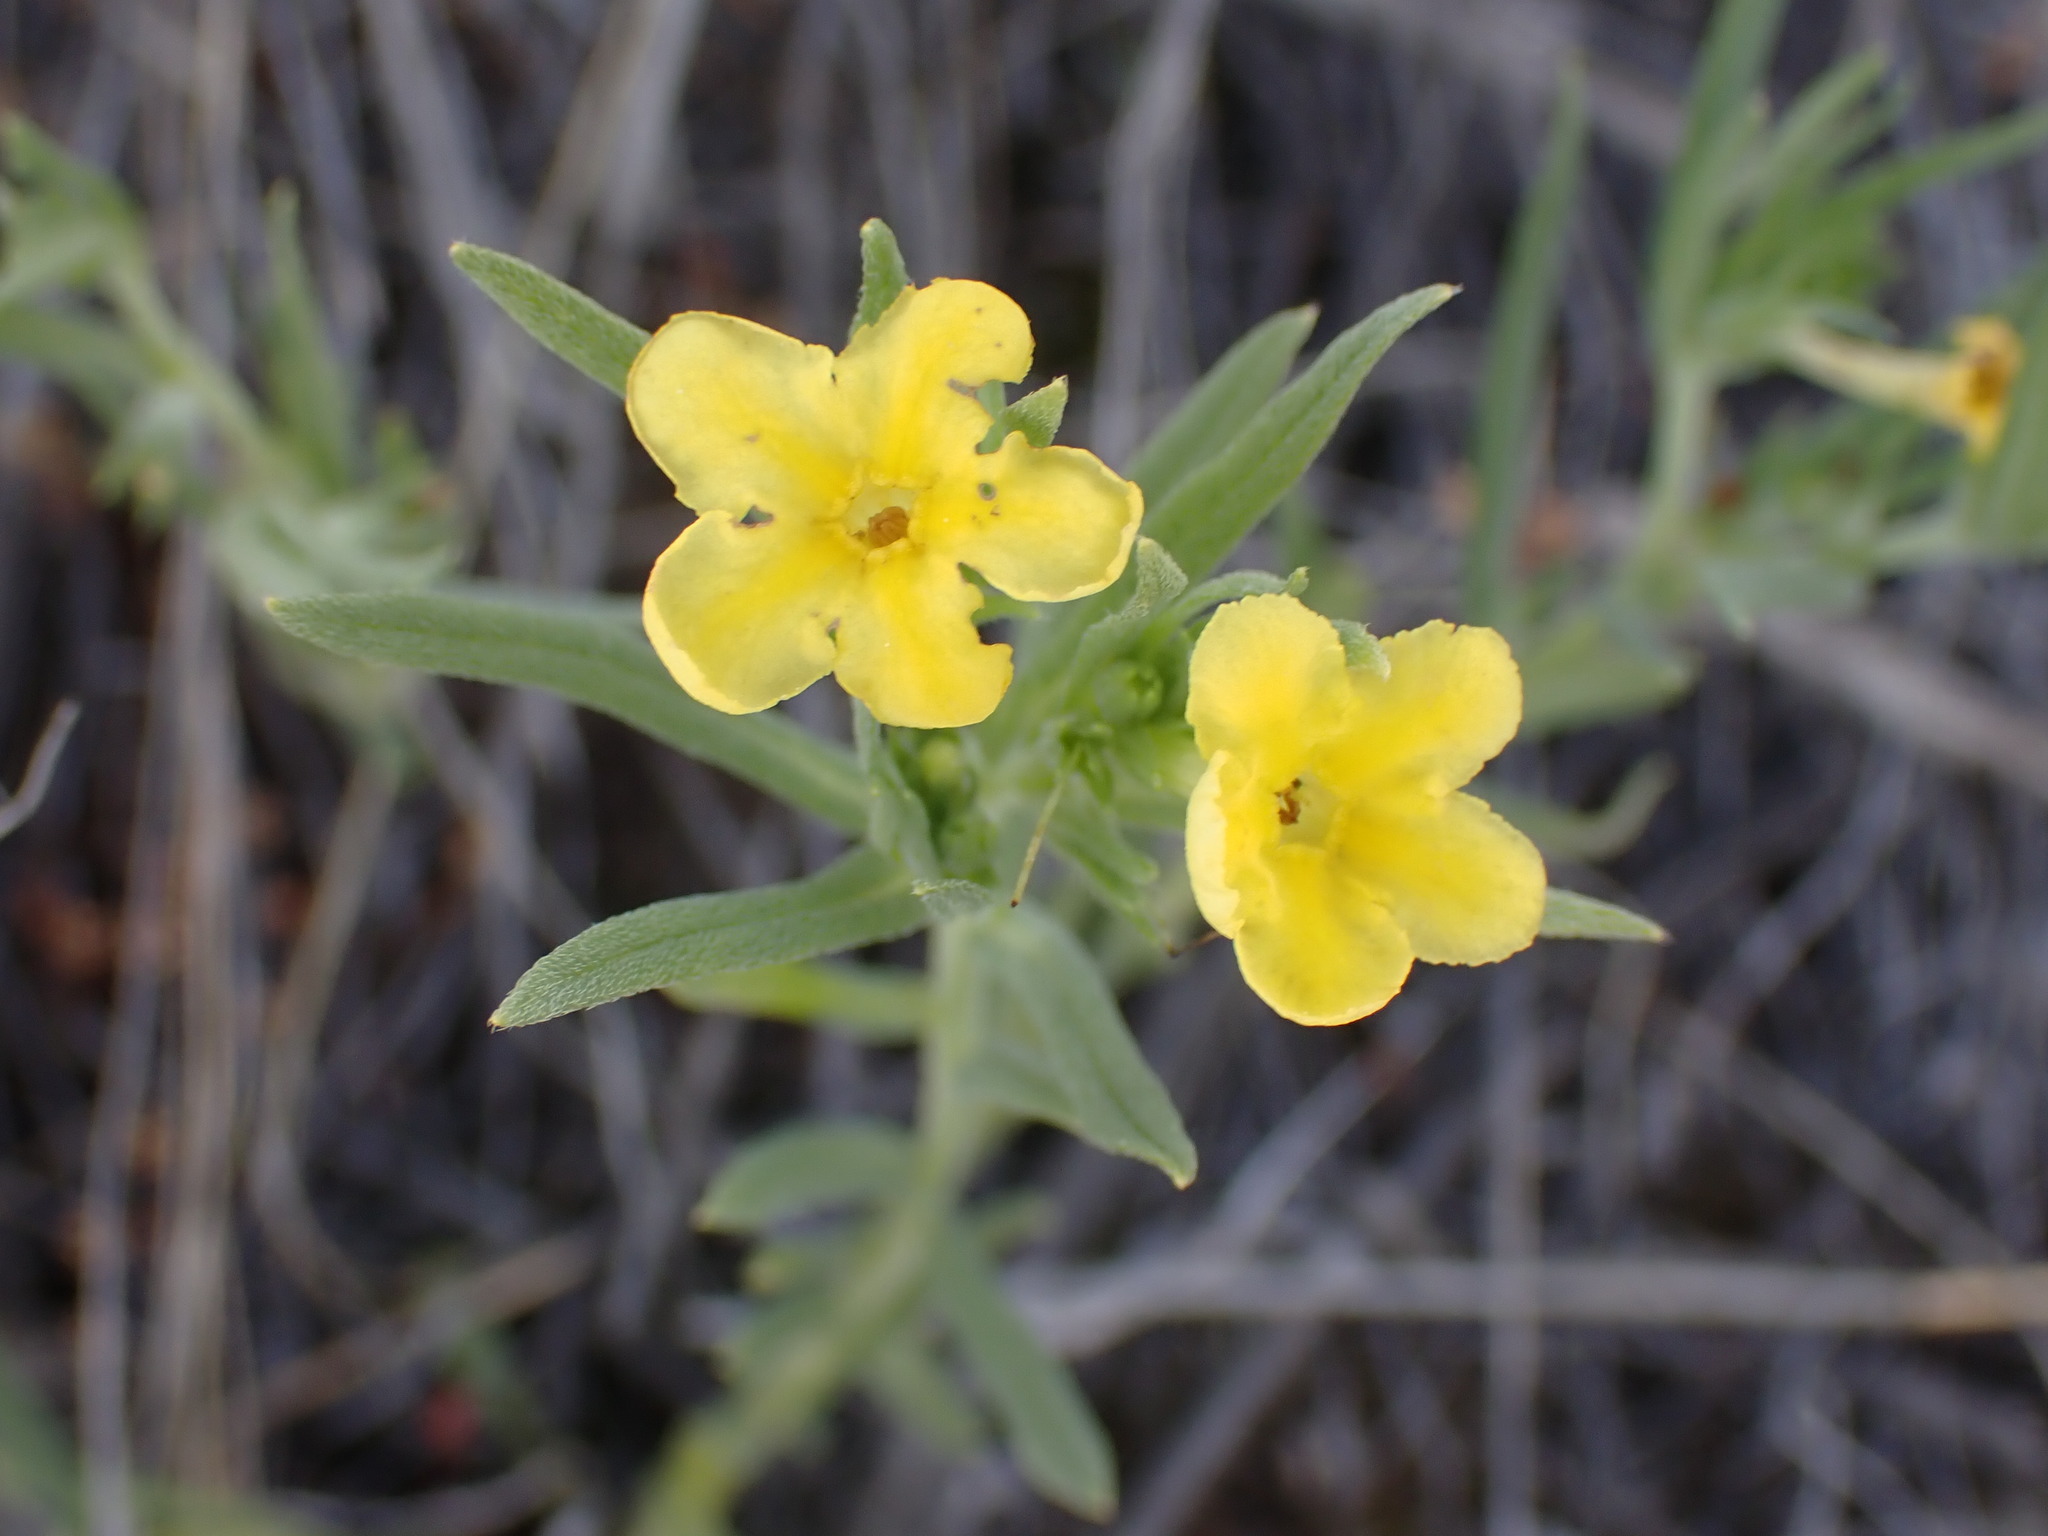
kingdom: Plantae
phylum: Tracheophyta
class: Magnoliopsida
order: Boraginales
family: Boraginaceae
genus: Lithospermum
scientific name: Lithospermum incisum
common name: Fringed gromwell
